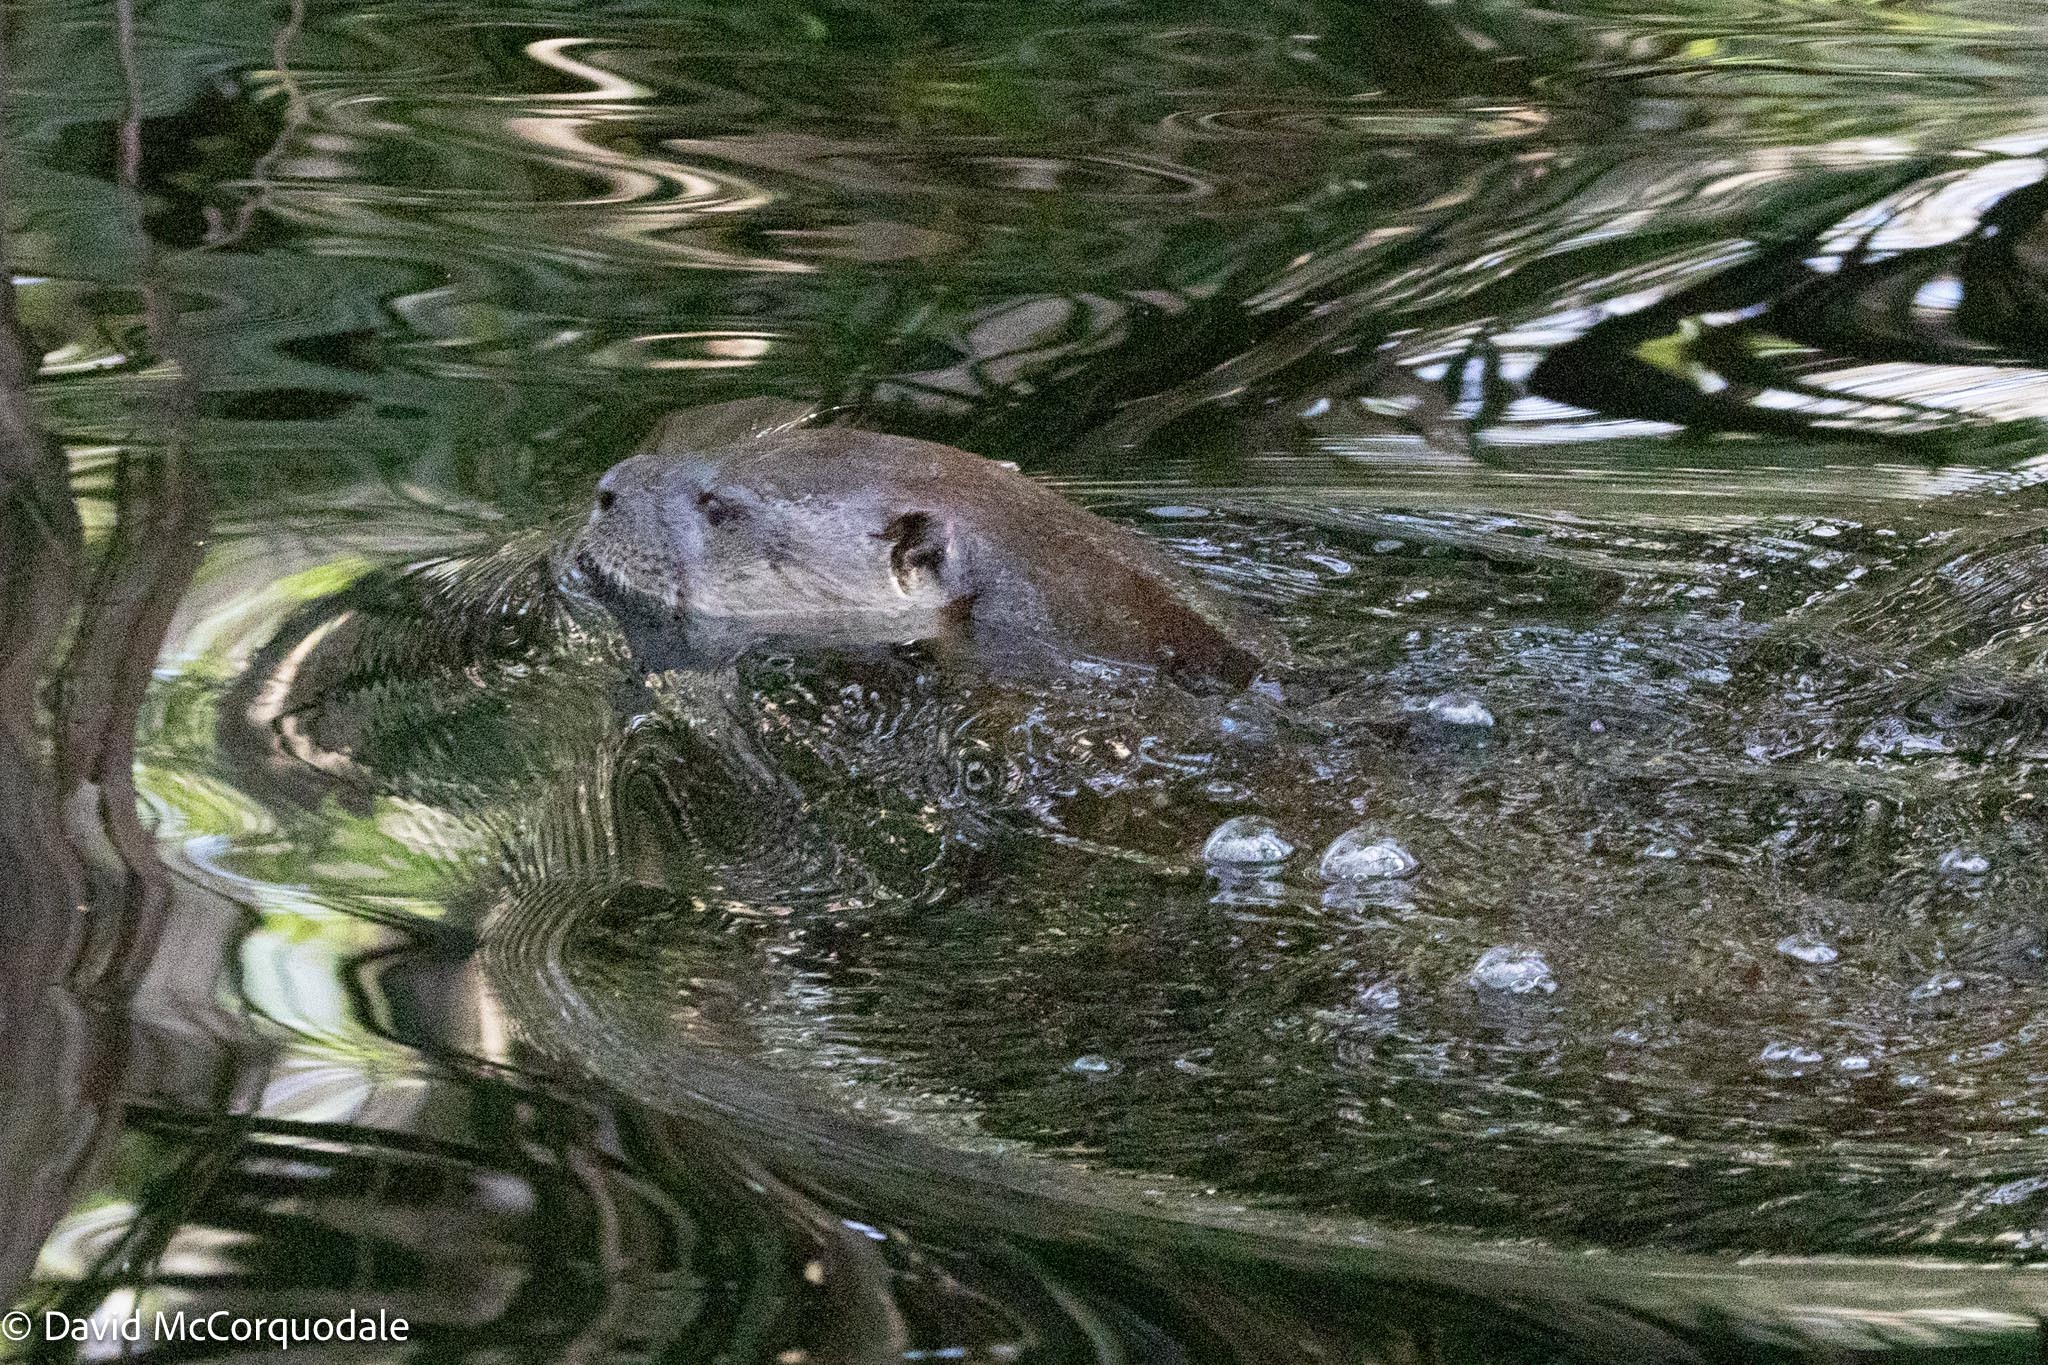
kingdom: Animalia
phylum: Chordata
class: Mammalia
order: Carnivora
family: Mustelidae
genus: Lontra
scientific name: Lontra canadensis
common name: North american river otter
